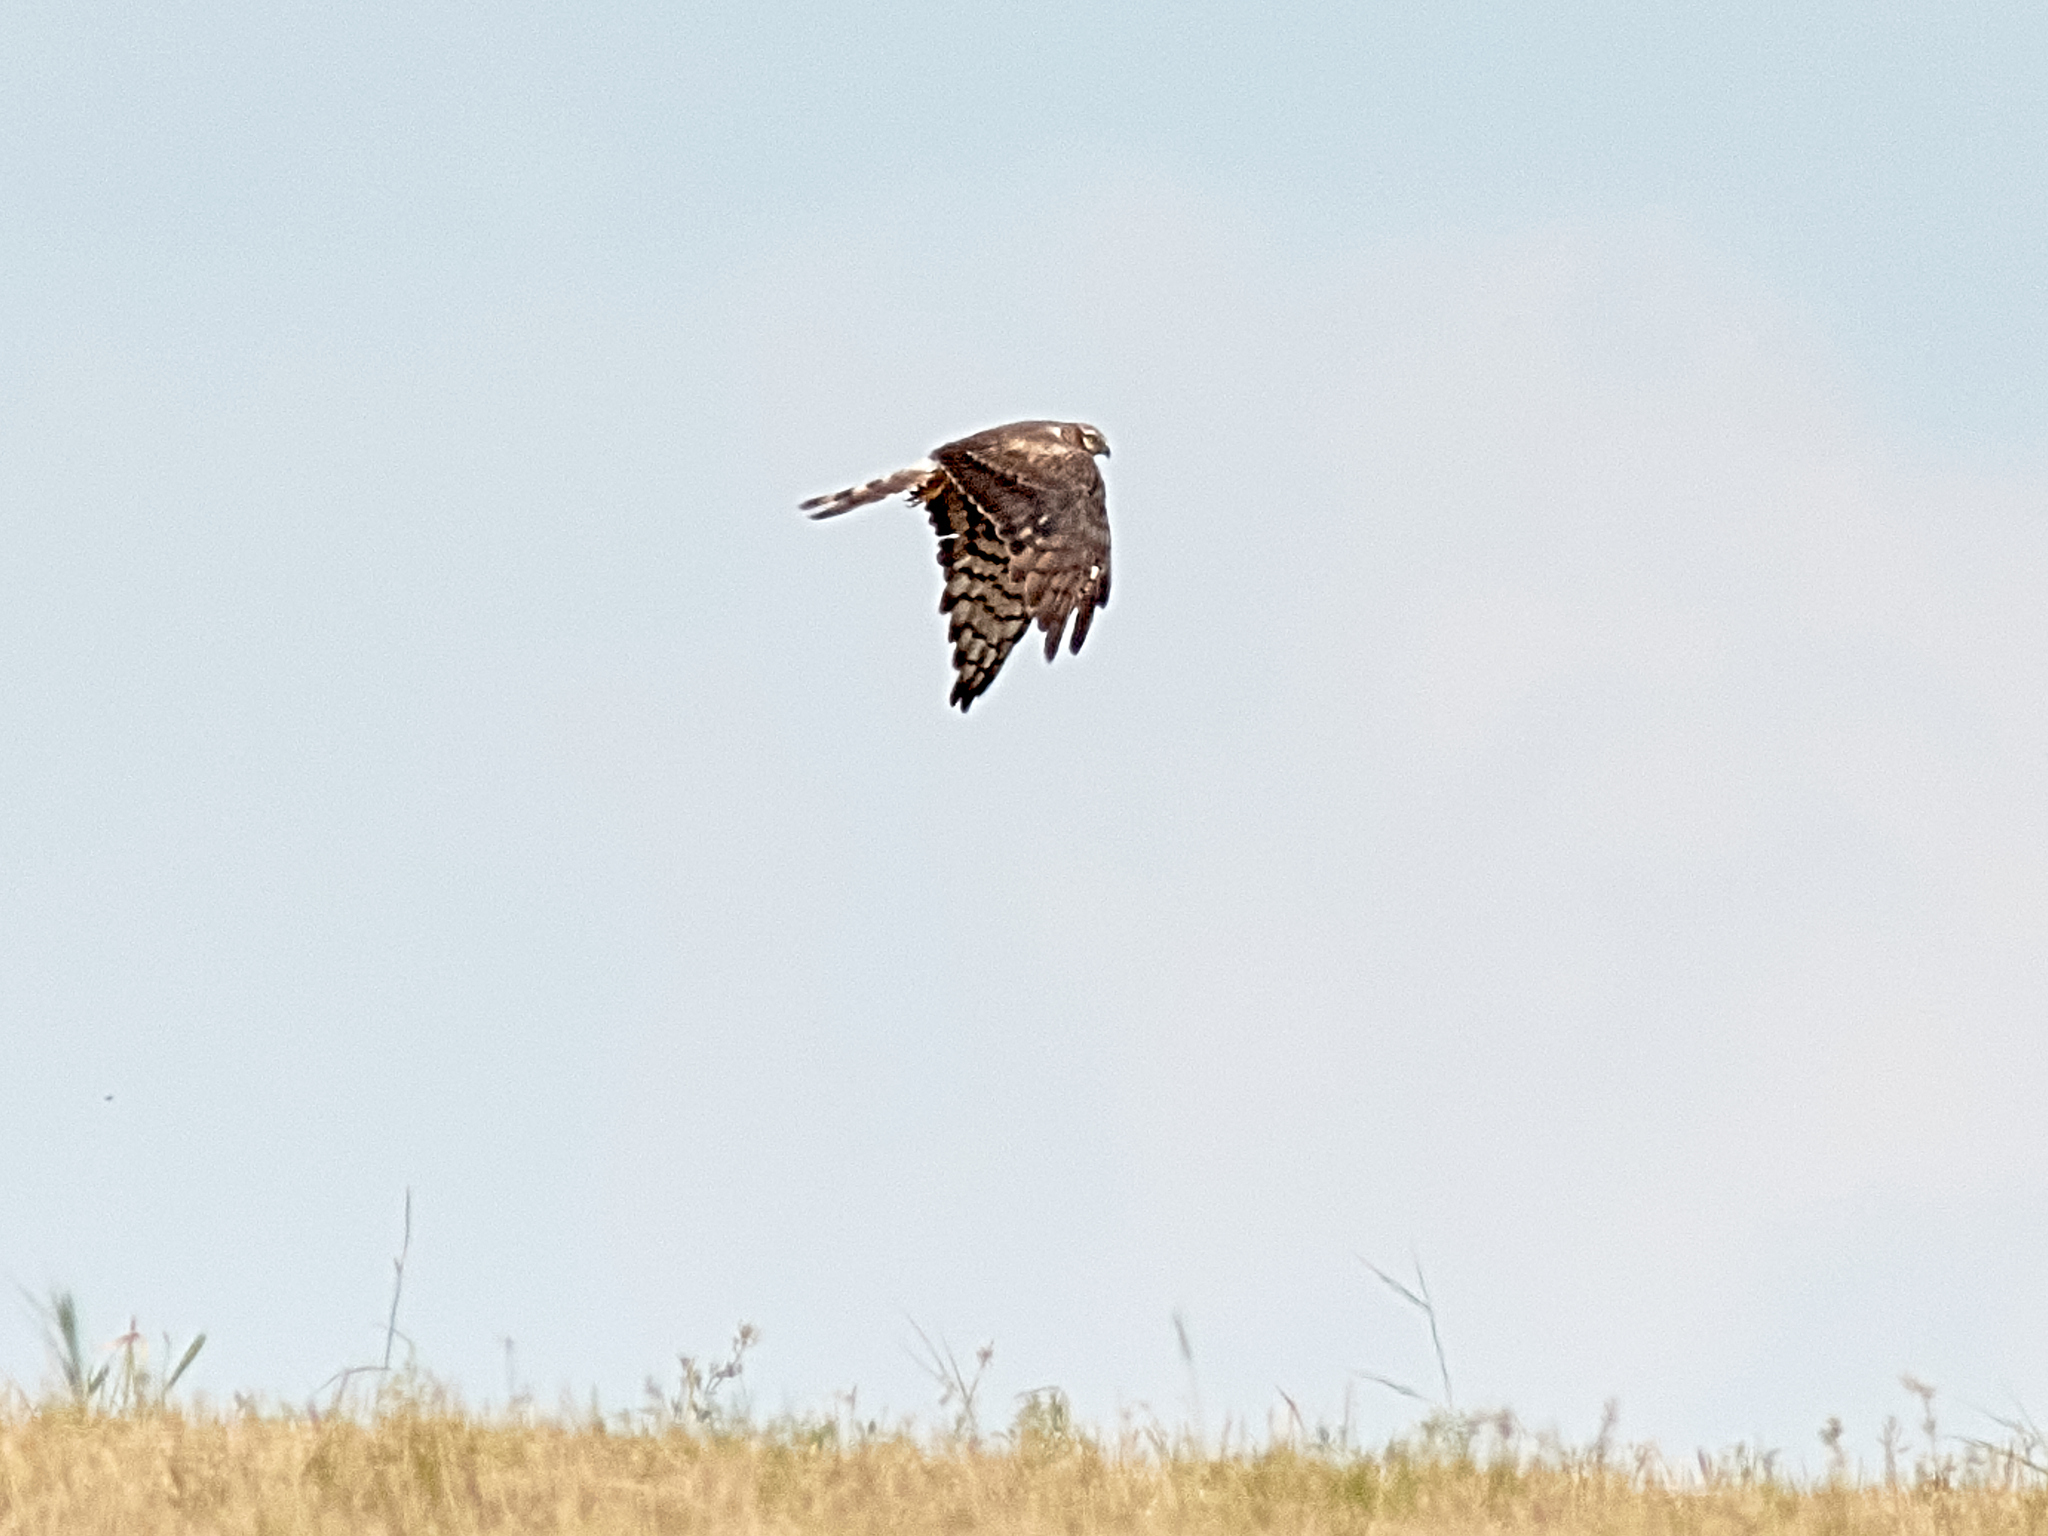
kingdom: Animalia
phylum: Chordata
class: Aves
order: Accipitriformes
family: Accipitridae
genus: Circus
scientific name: Circus pygargus
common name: Montagu's harrier
